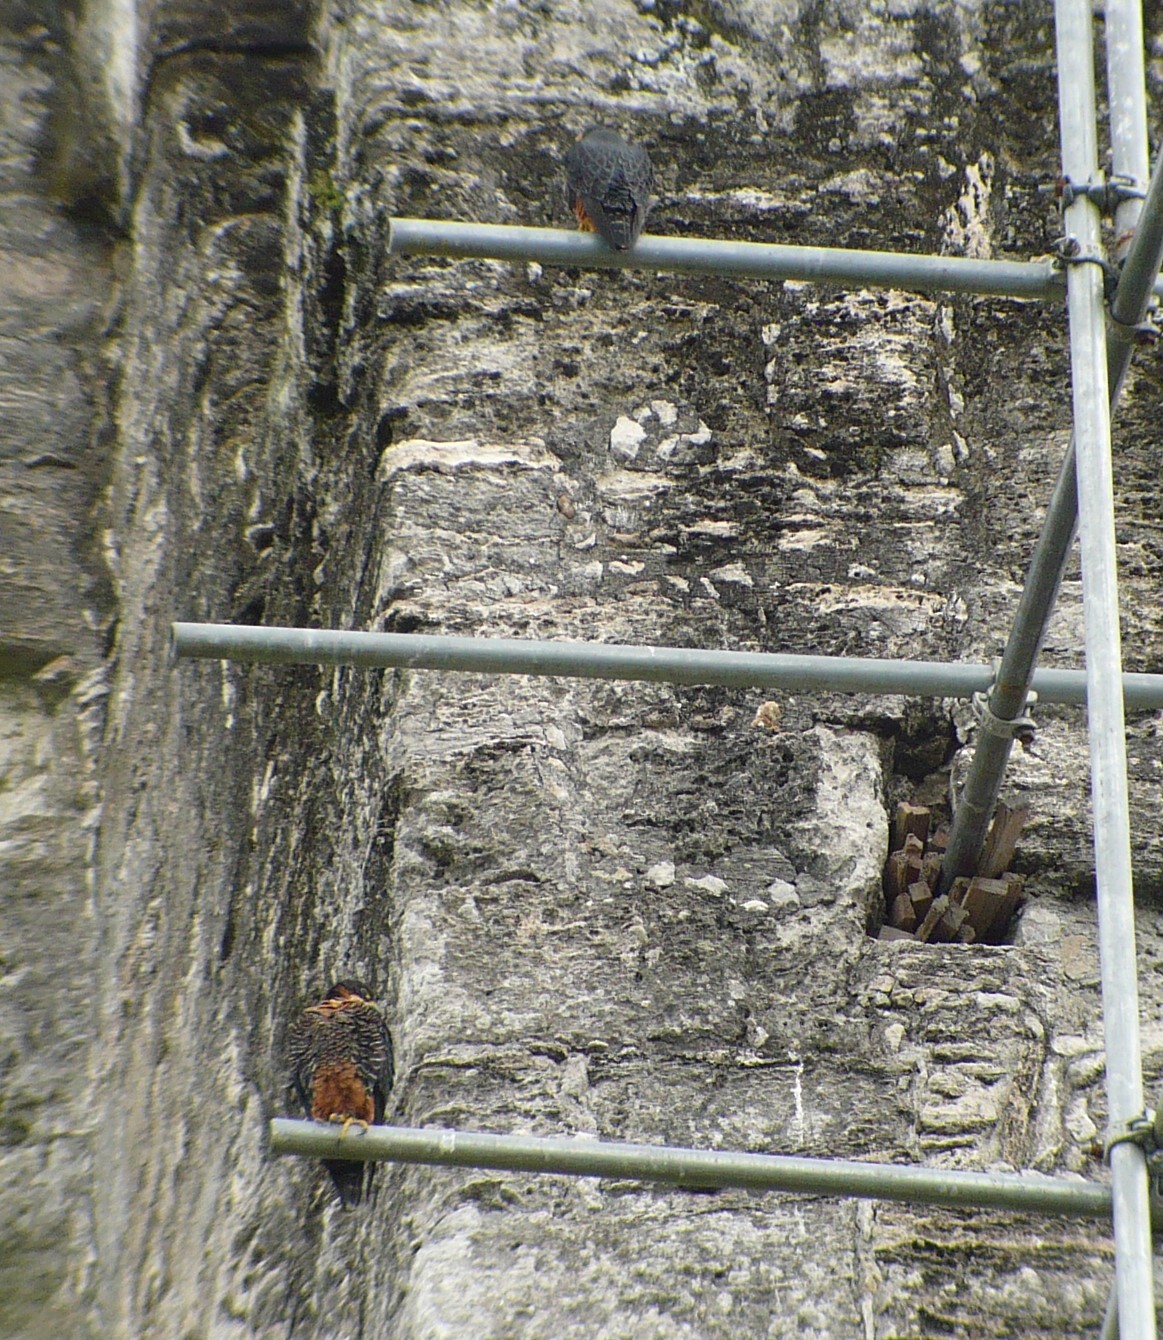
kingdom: Animalia
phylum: Chordata
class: Aves
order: Falconiformes
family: Falconidae
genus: Falco
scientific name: Falco deiroleucus
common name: Orange-breasted falcon
